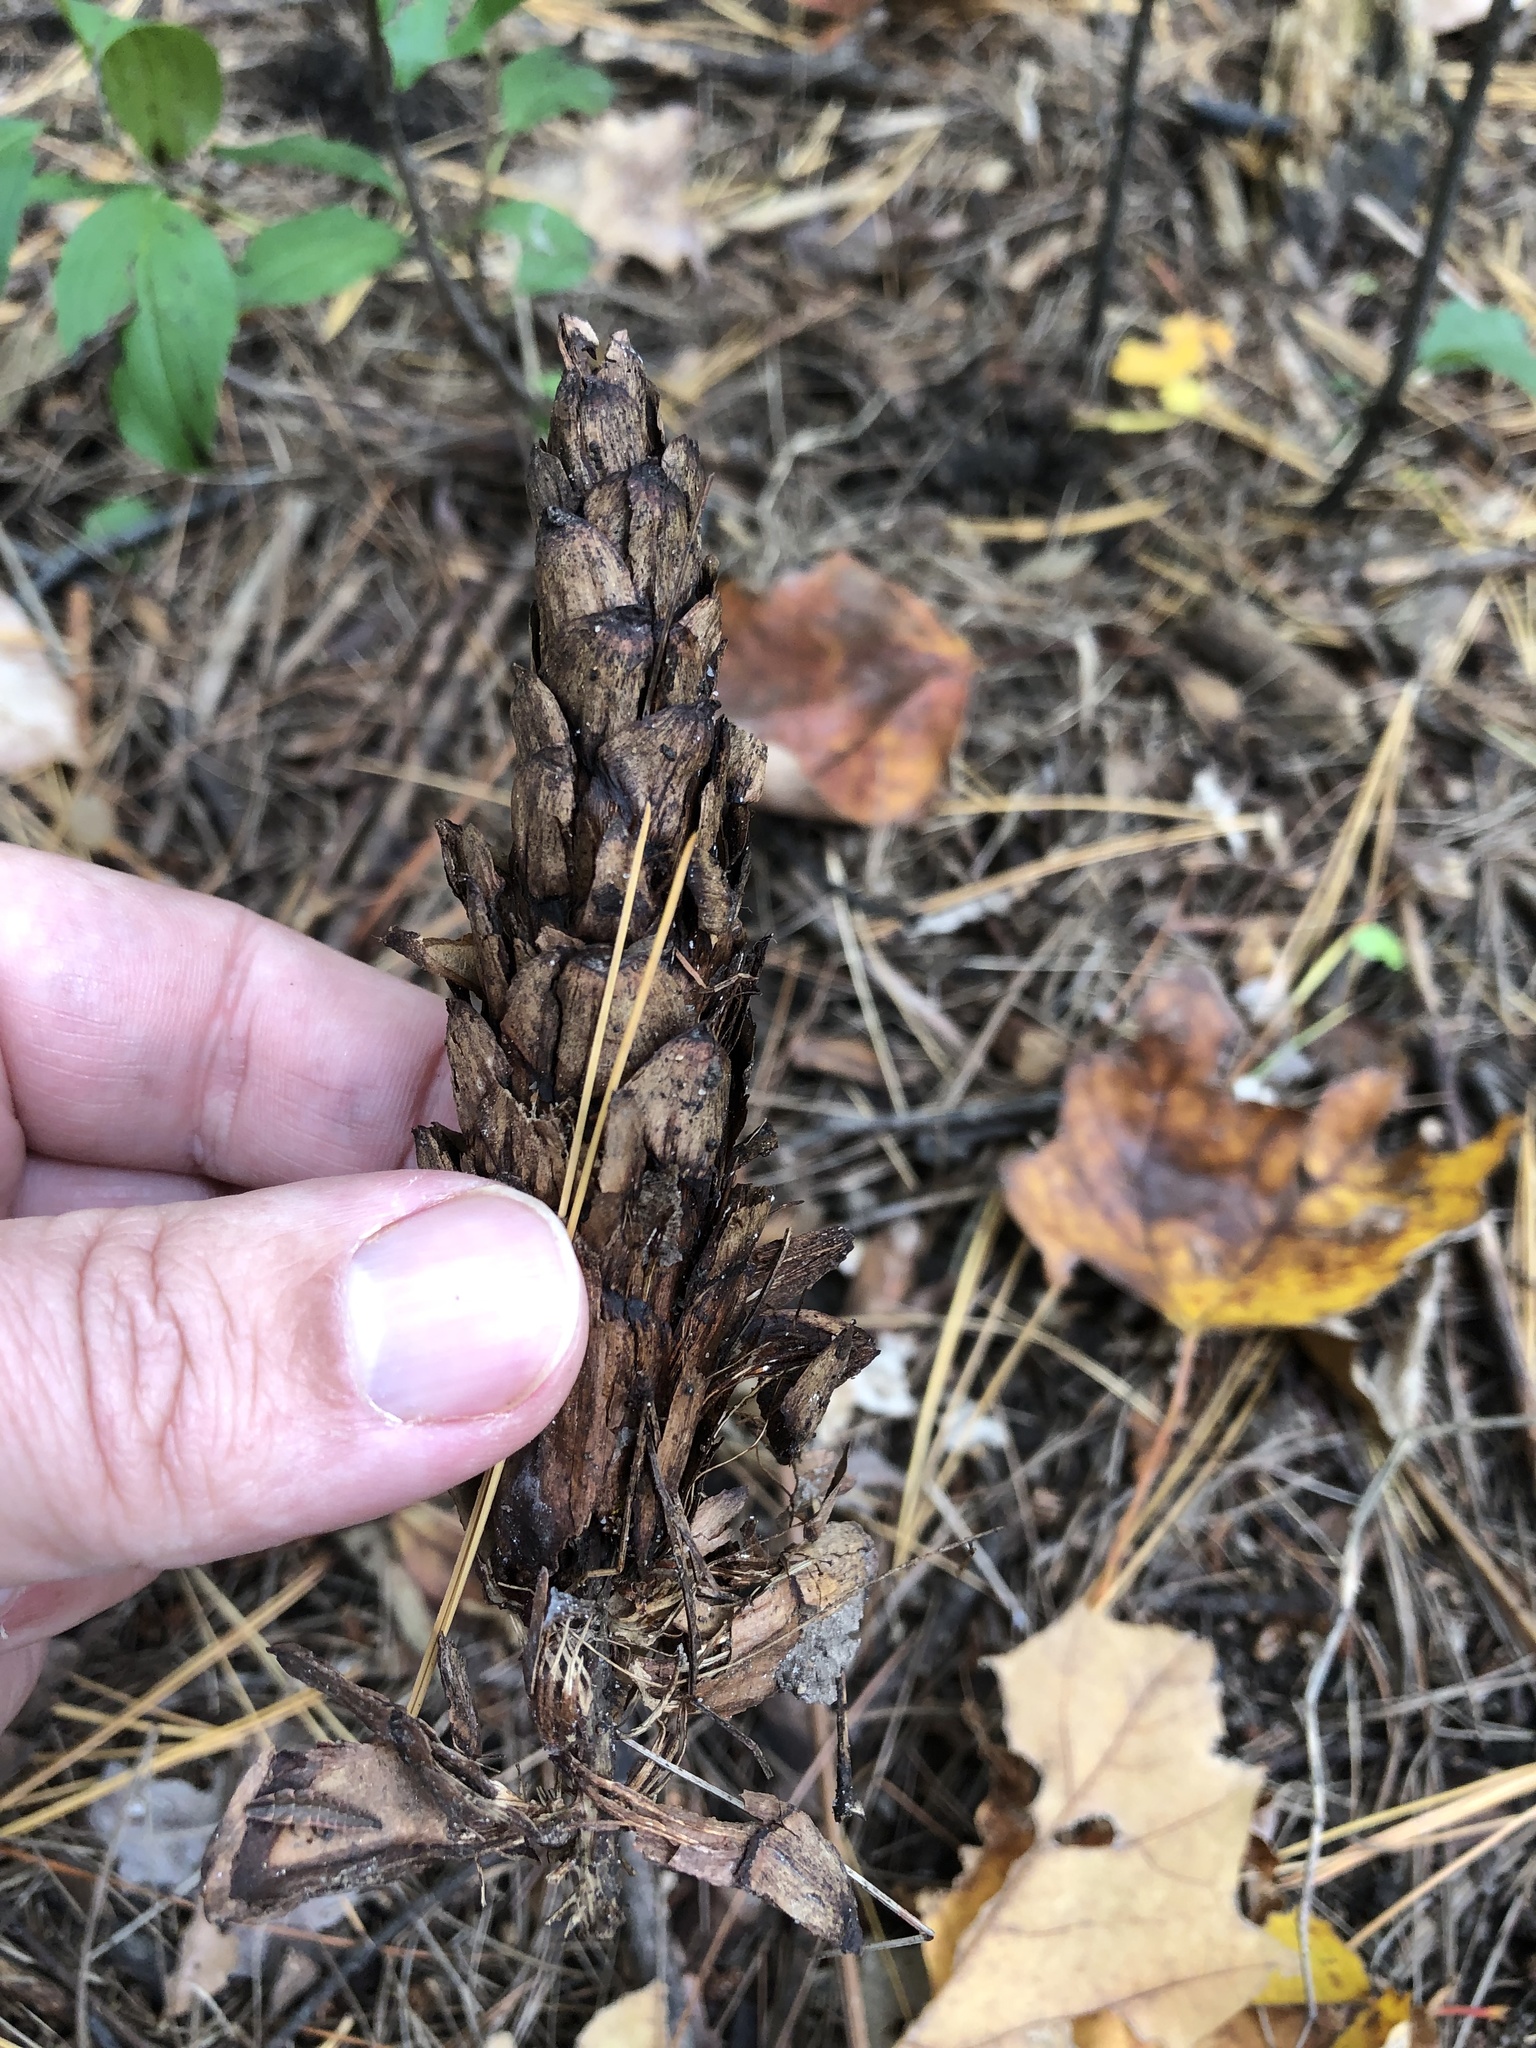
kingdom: Plantae
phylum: Tracheophyta
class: Pinopsida
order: Pinales
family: Pinaceae
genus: Pinus
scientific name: Pinus strobus
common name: Weymouth pine
